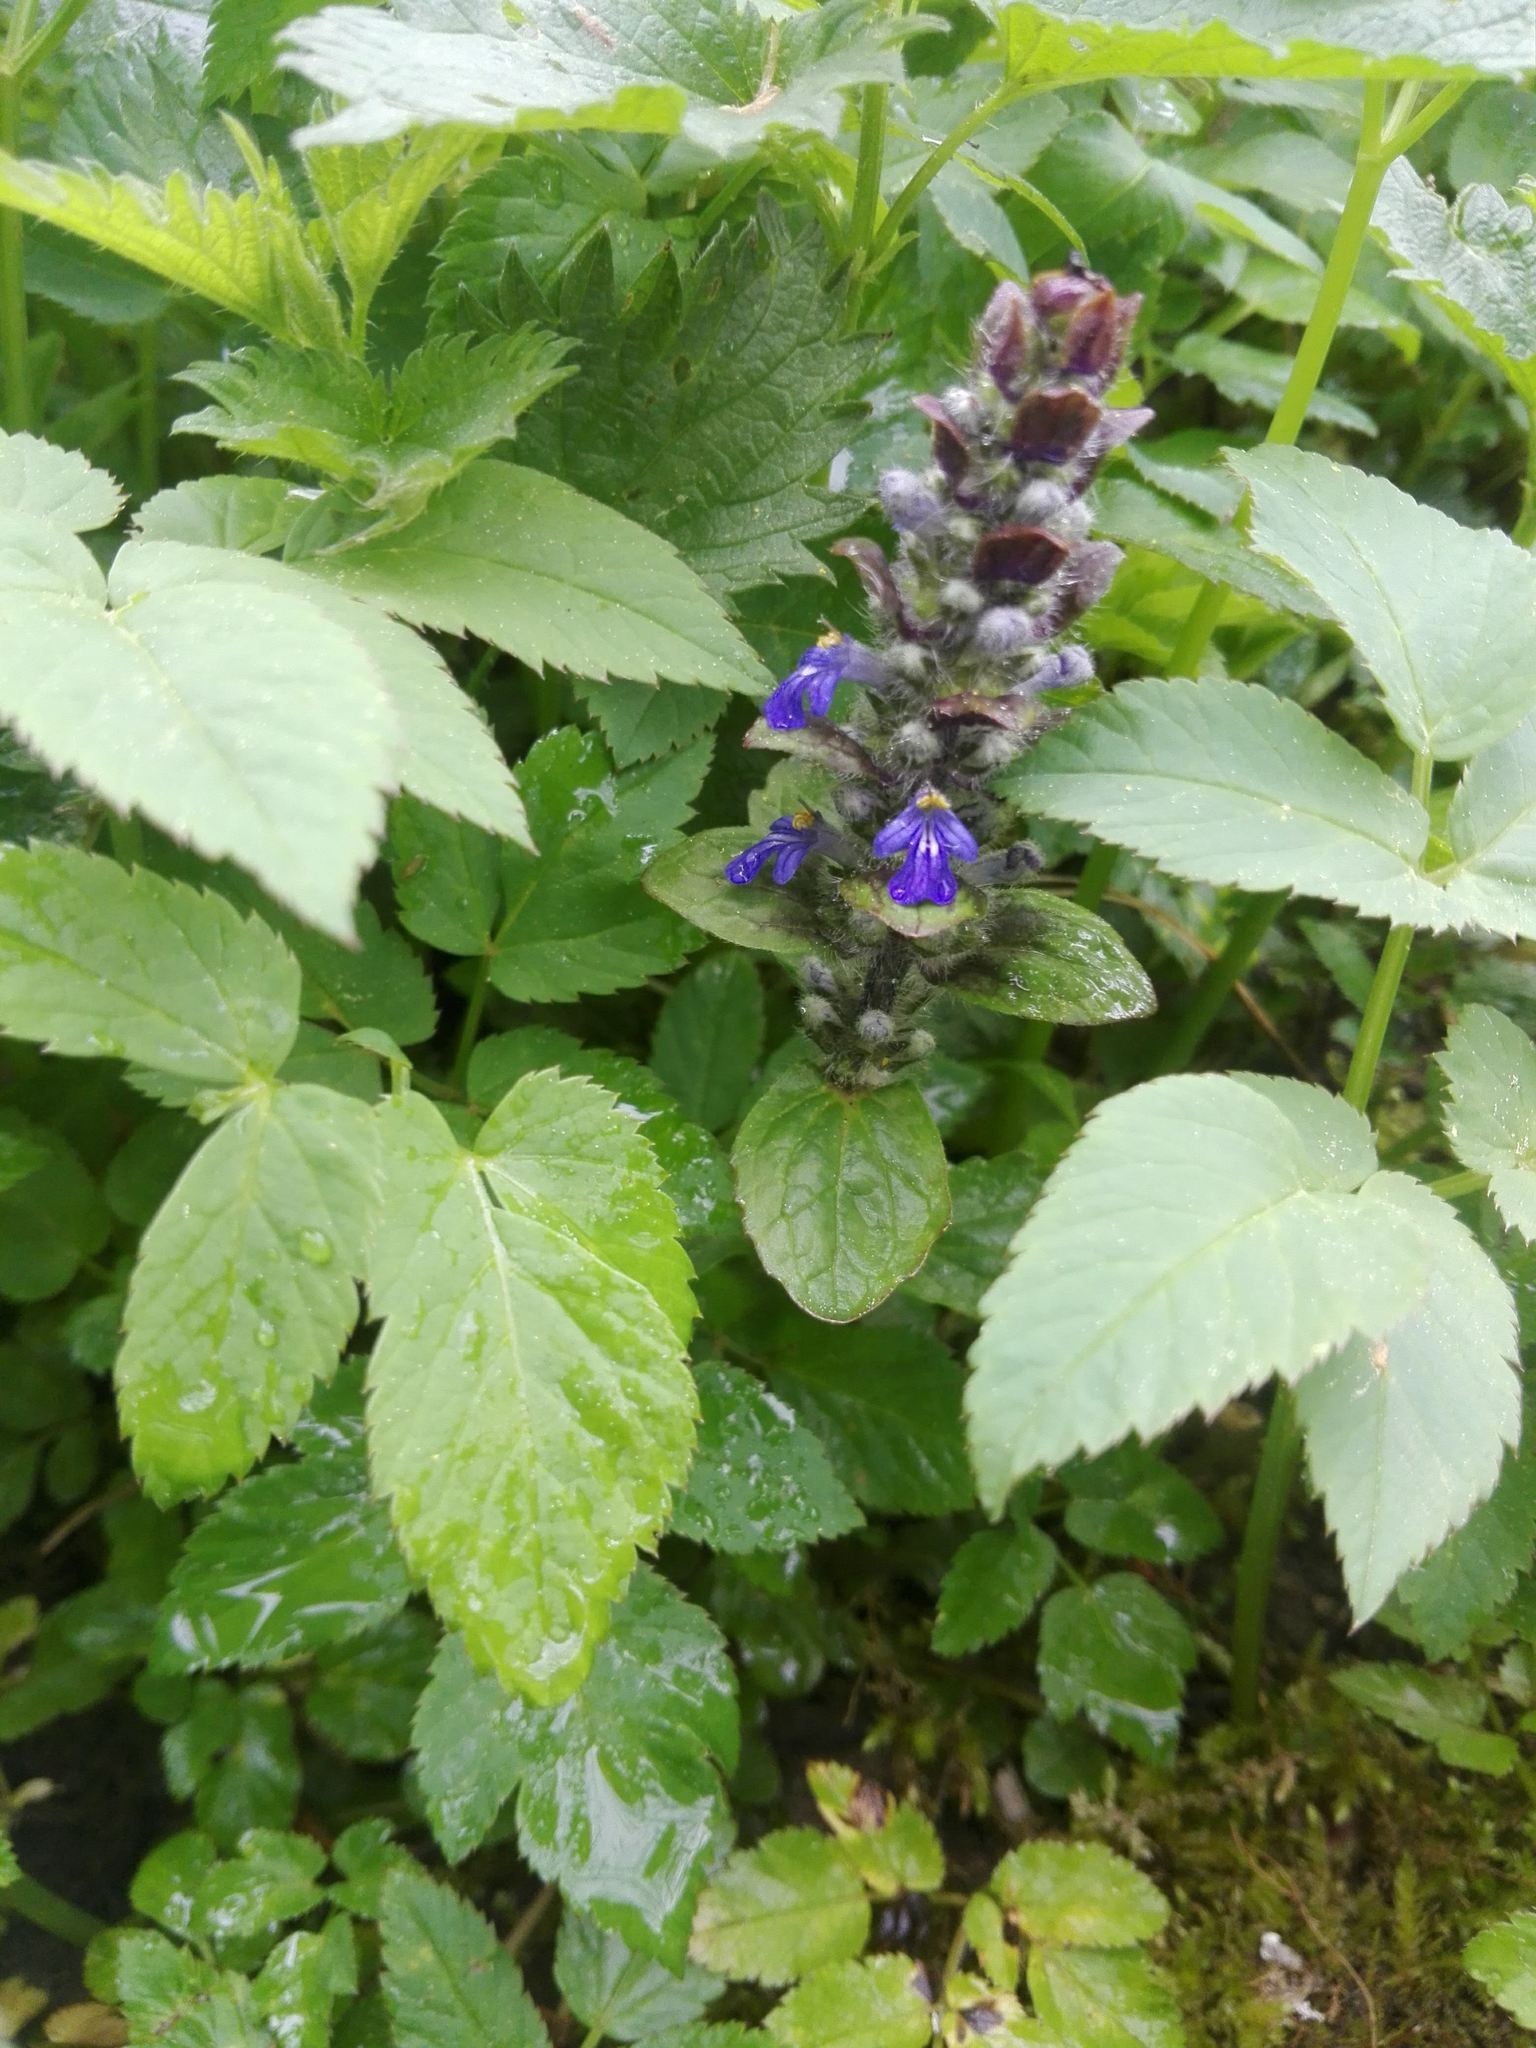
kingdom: Plantae
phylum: Tracheophyta
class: Magnoliopsida
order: Lamiales
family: Lamiaceae
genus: Ajuga
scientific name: Ajuga reptans
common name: Bugle
